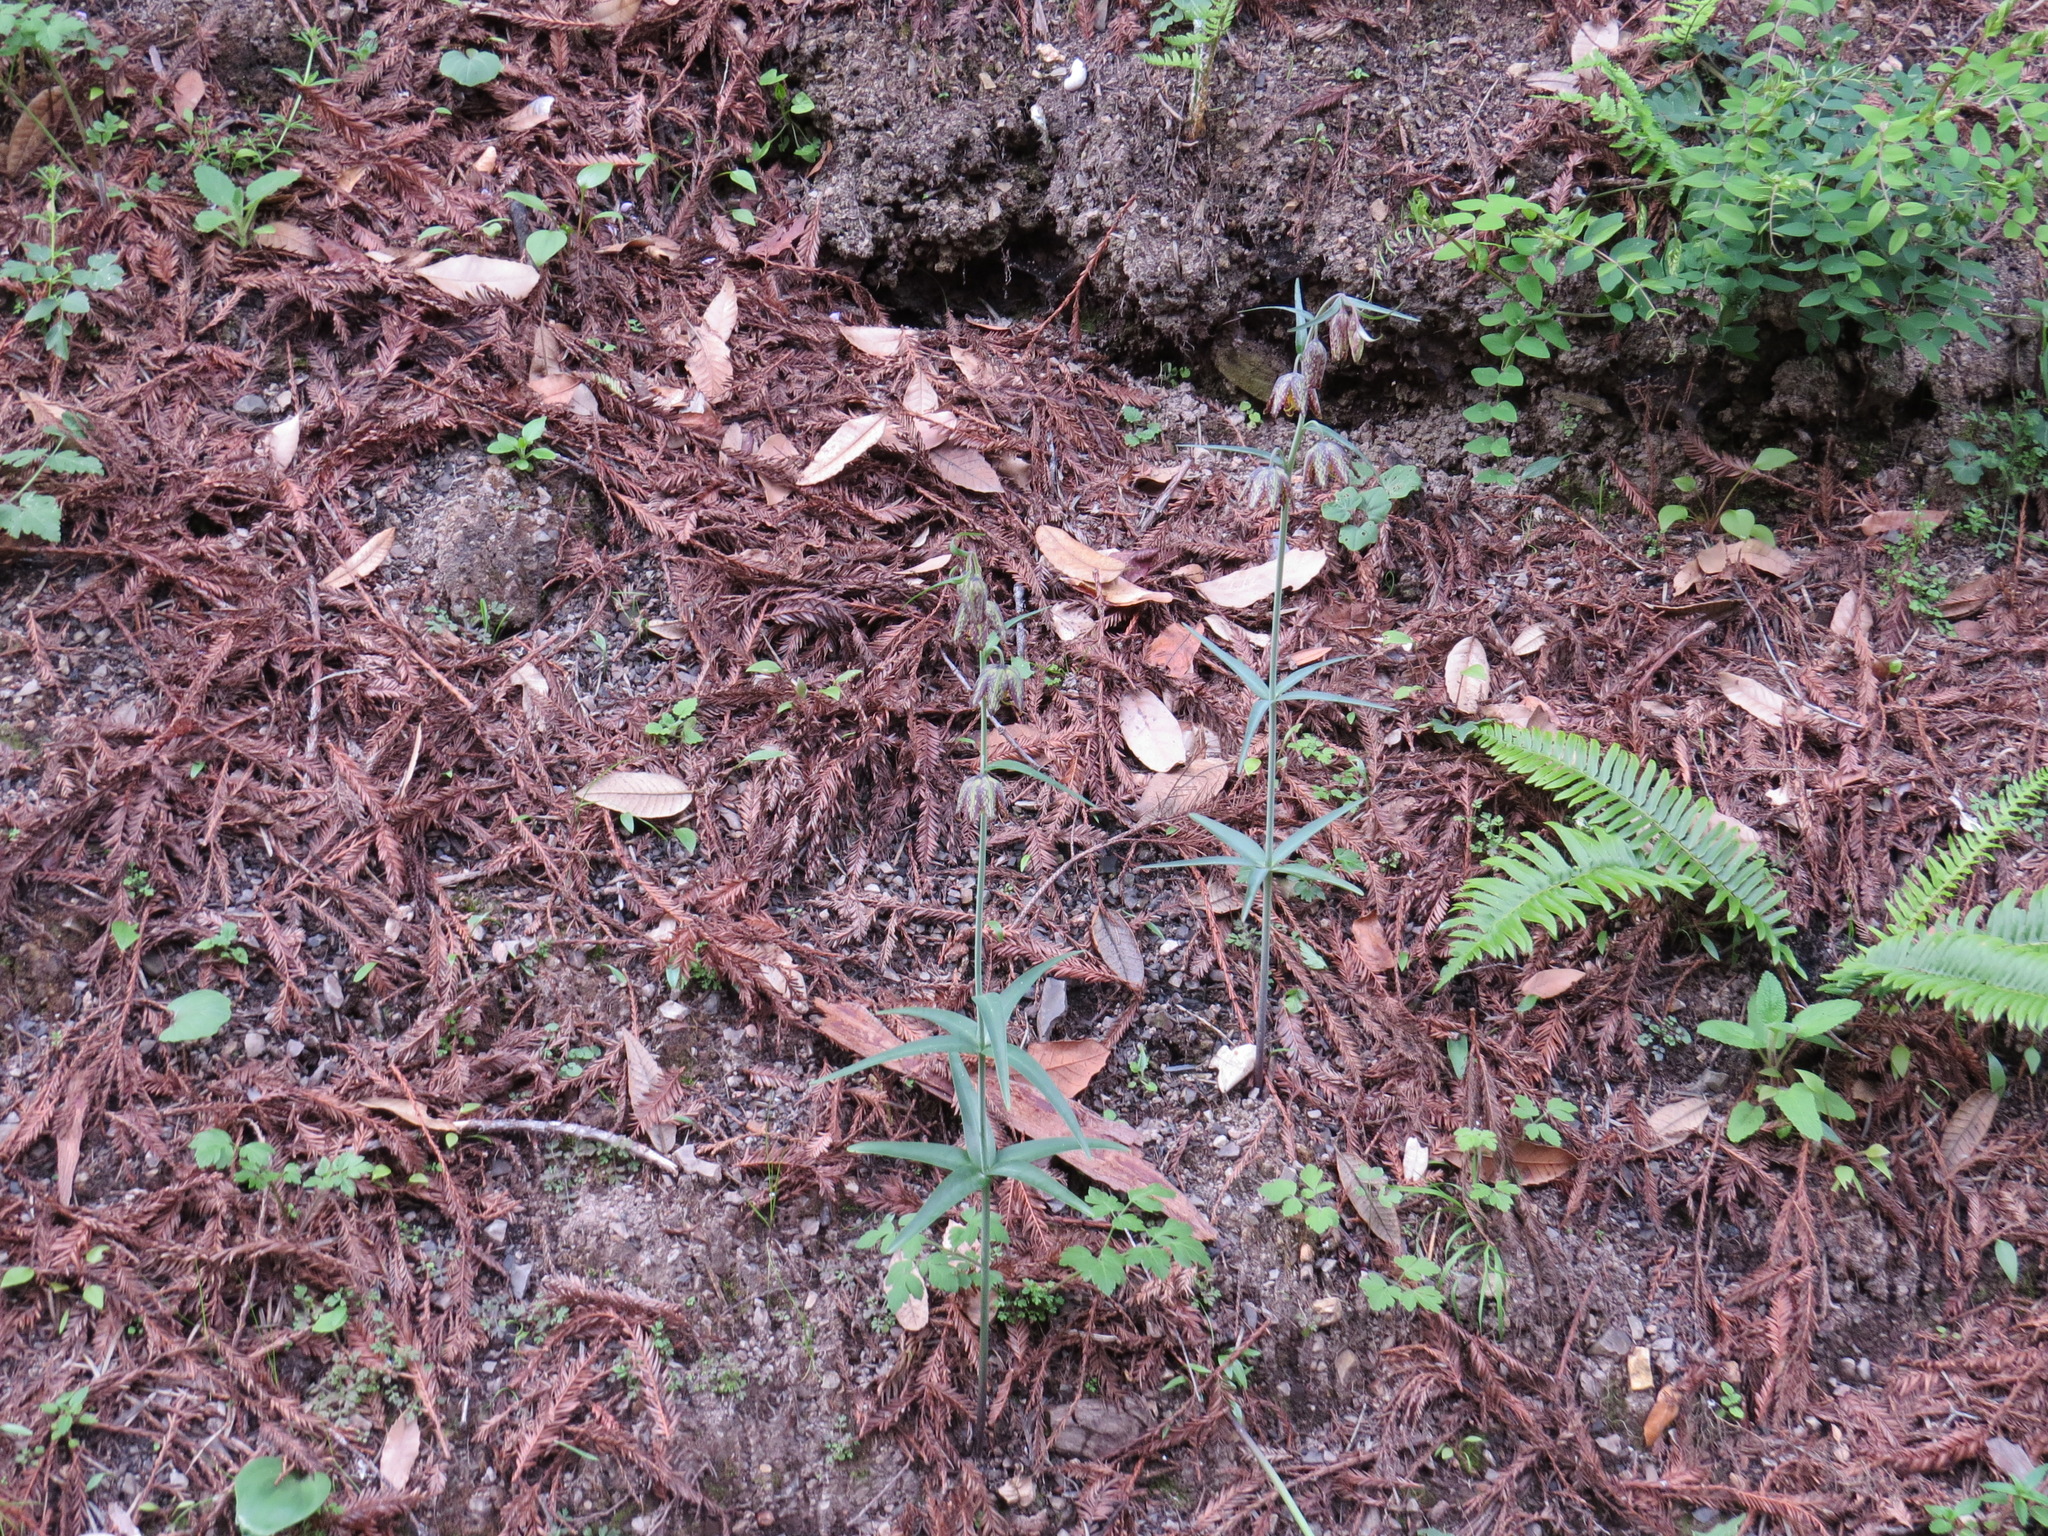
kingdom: Plantae
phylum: Tracheophyta
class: Liliopsida
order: Liliales
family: Liliaceae
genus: Fritillaria
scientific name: Fritillaria affinis
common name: Ojai fritillary
